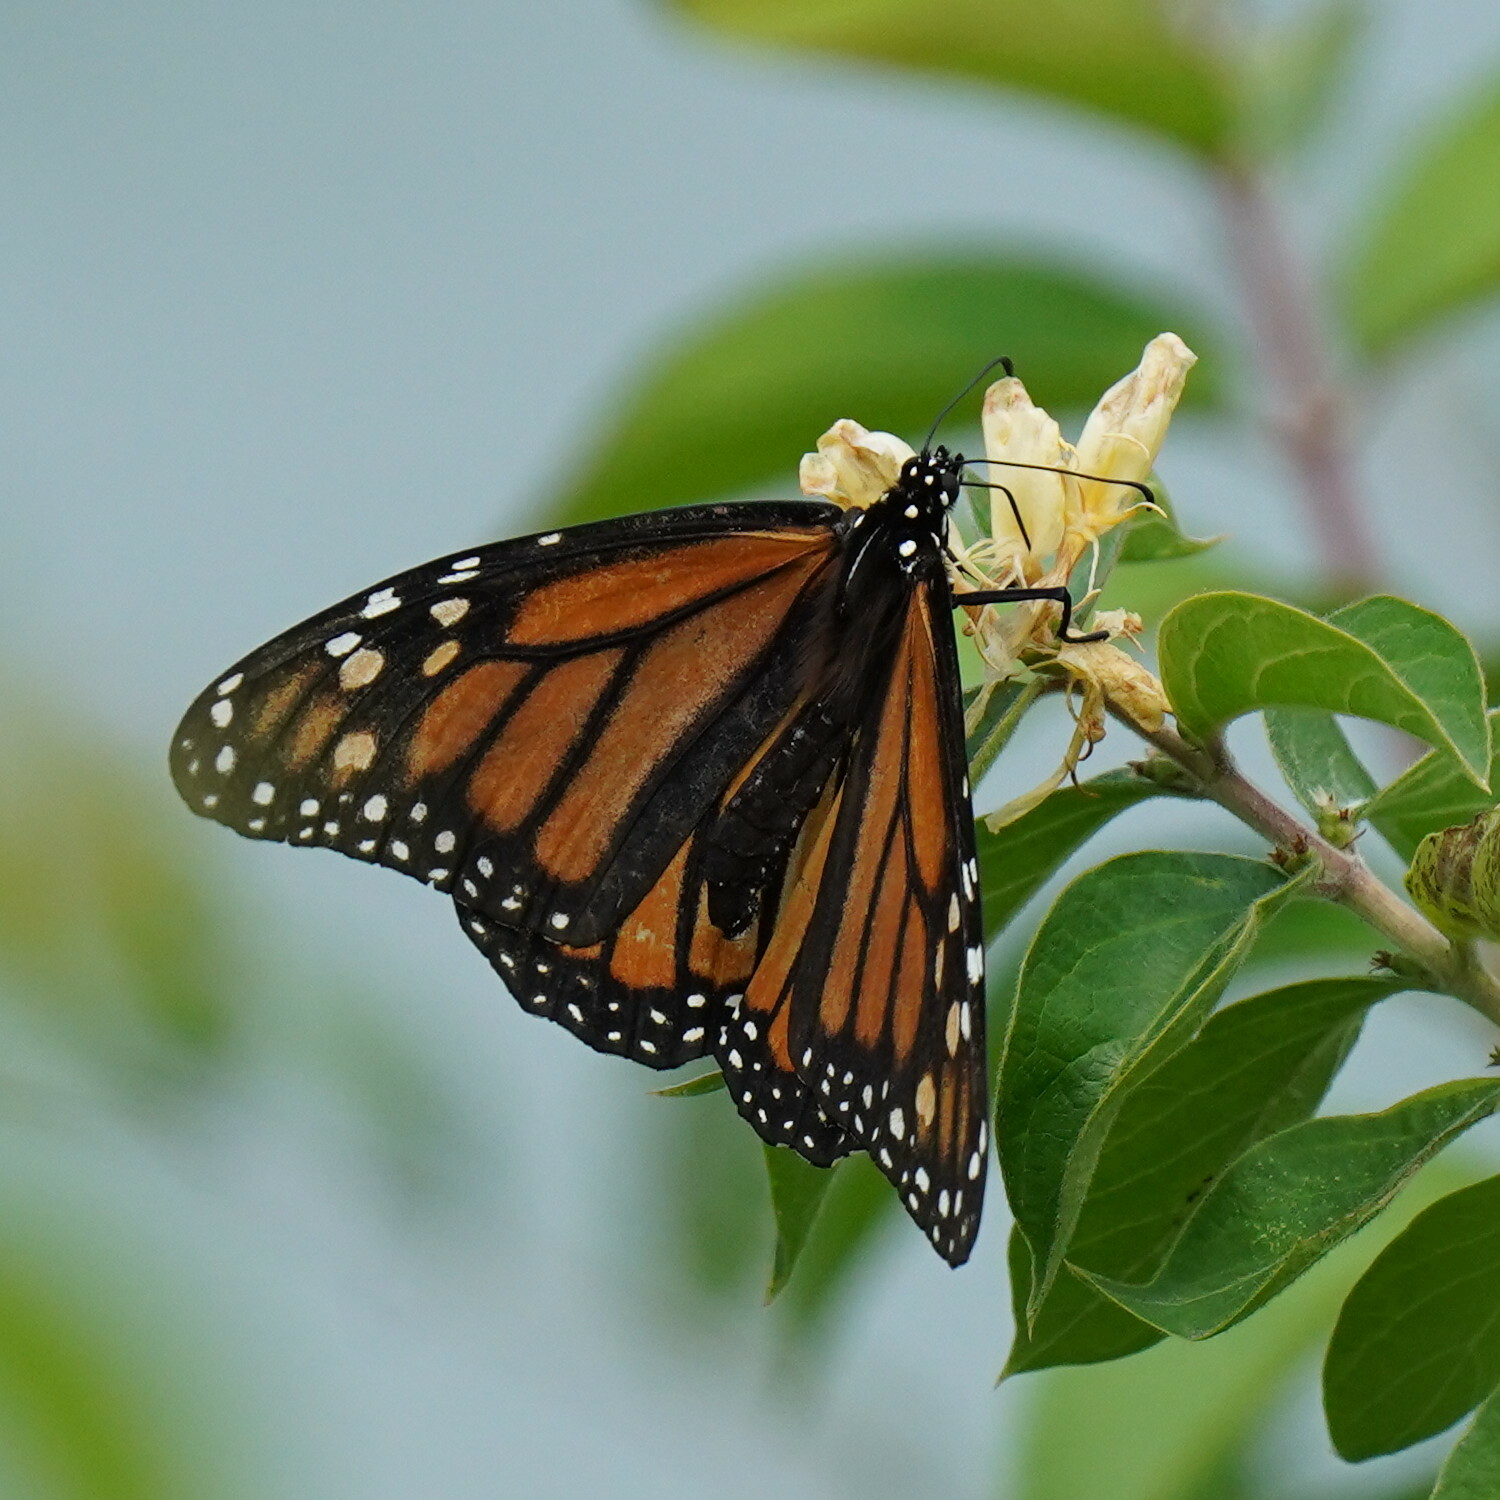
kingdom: Animalia
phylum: Arthropoda
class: Insecta
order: Lepidoptera
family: Nymphalidae
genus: Danaus
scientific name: Danaus plexippus
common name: Monarch
